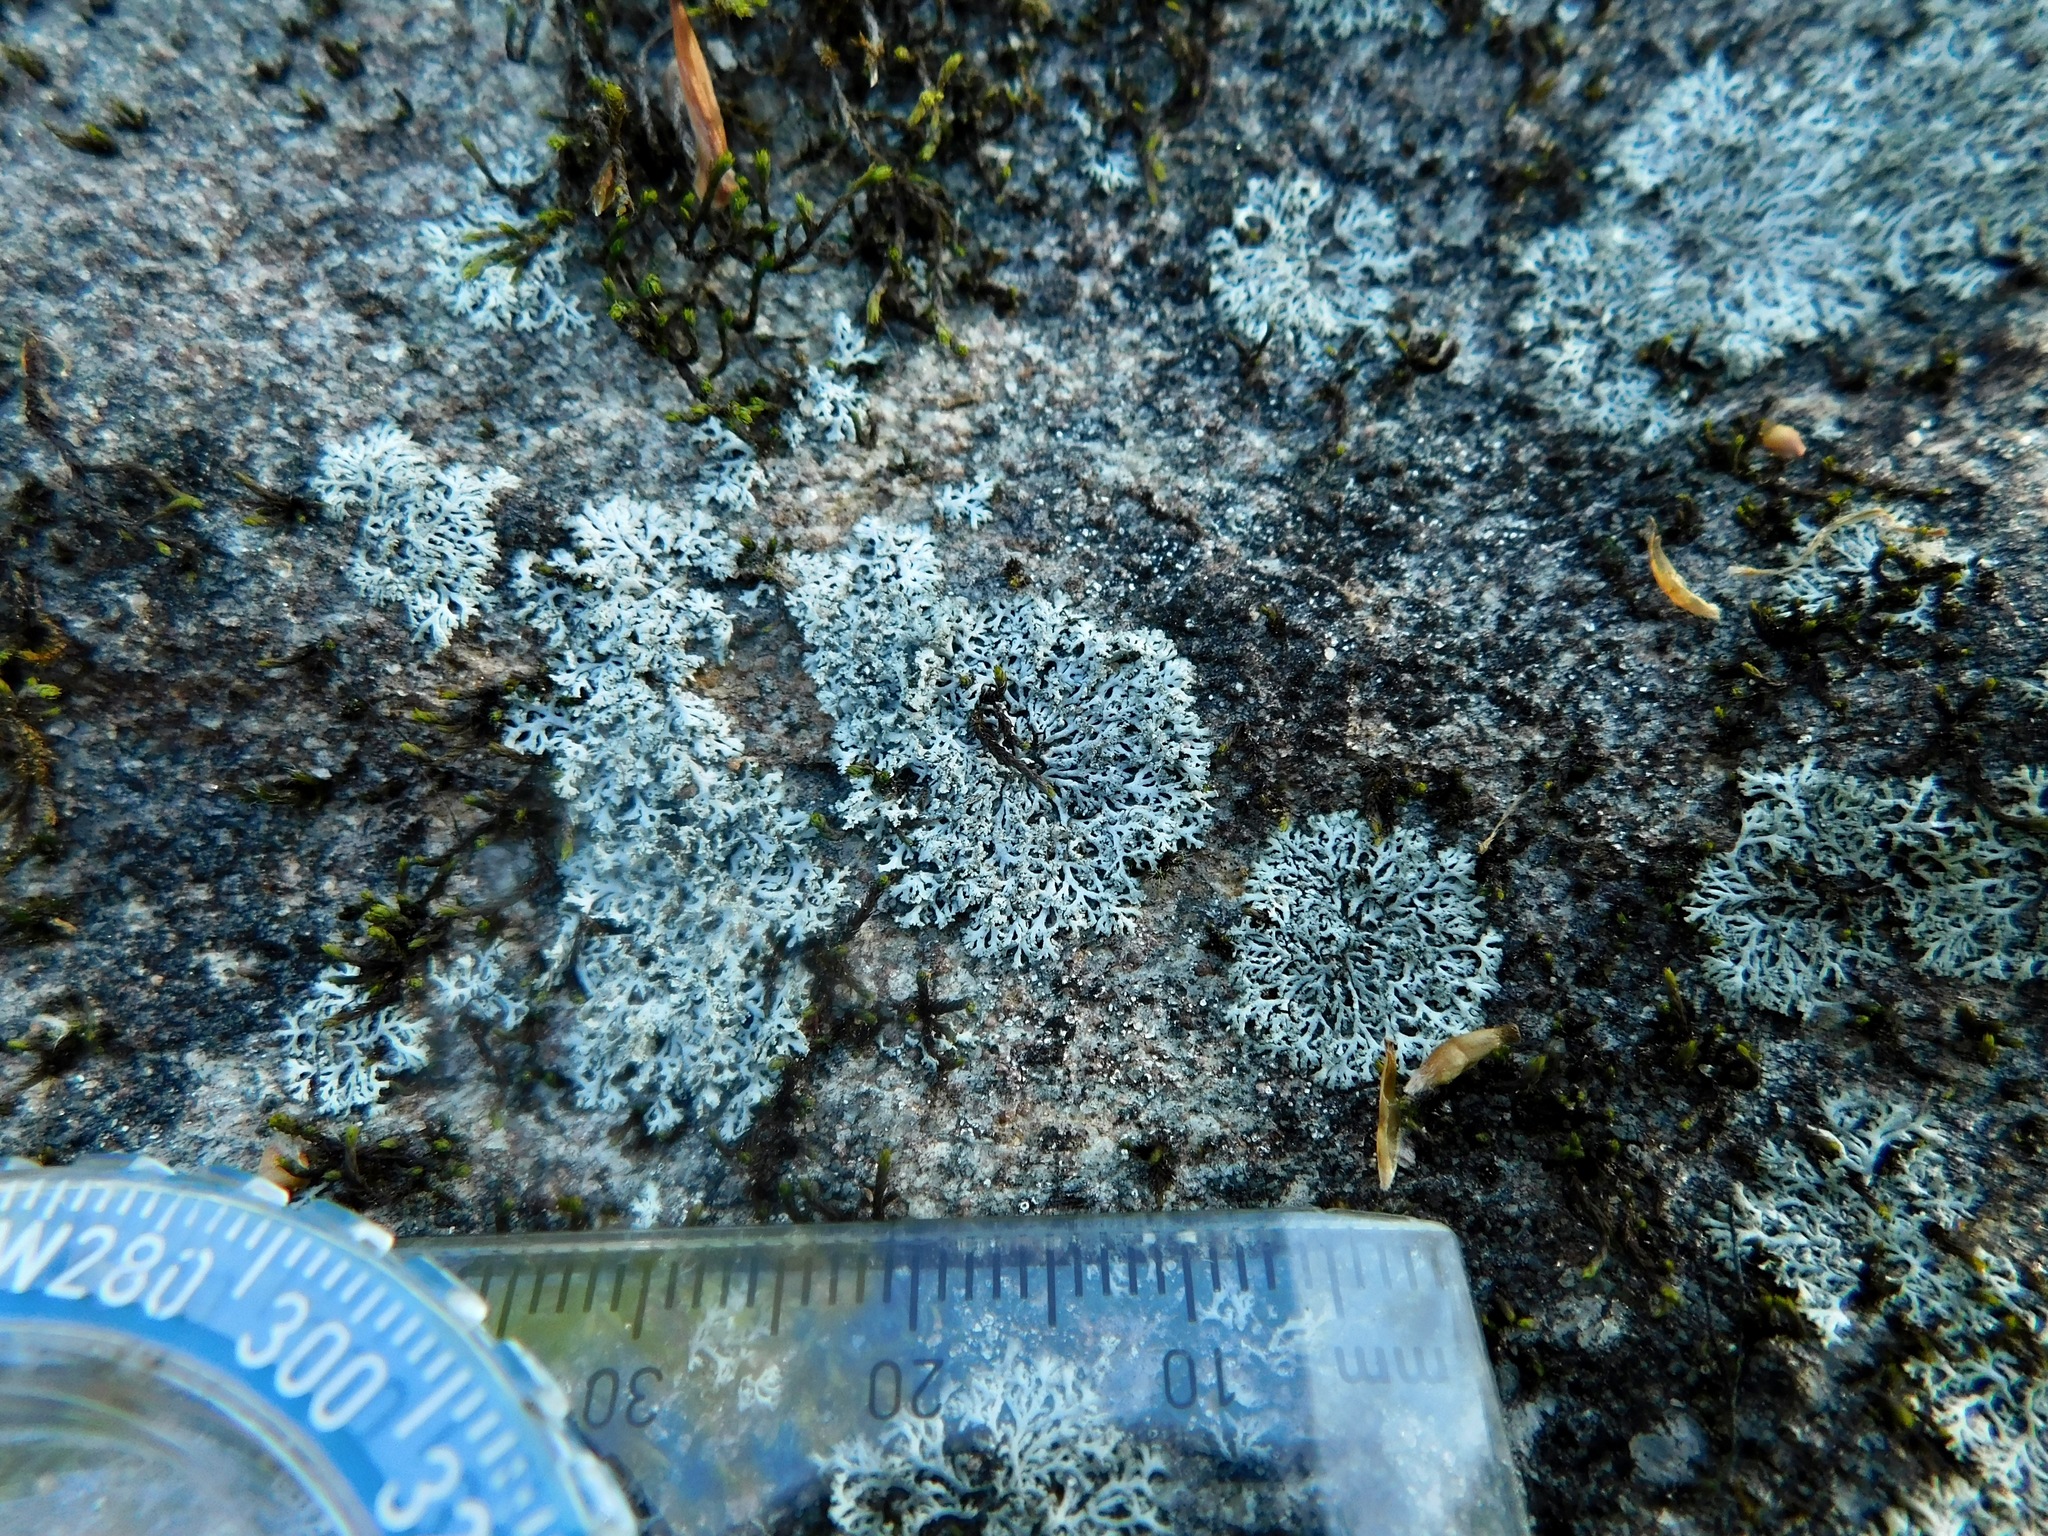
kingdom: Fungi
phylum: Ascomycota
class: Lecanoromycetes
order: Caliciales
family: Physciaceae
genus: Physcia
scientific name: Physcia subtilis
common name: Slender rosette lichen
